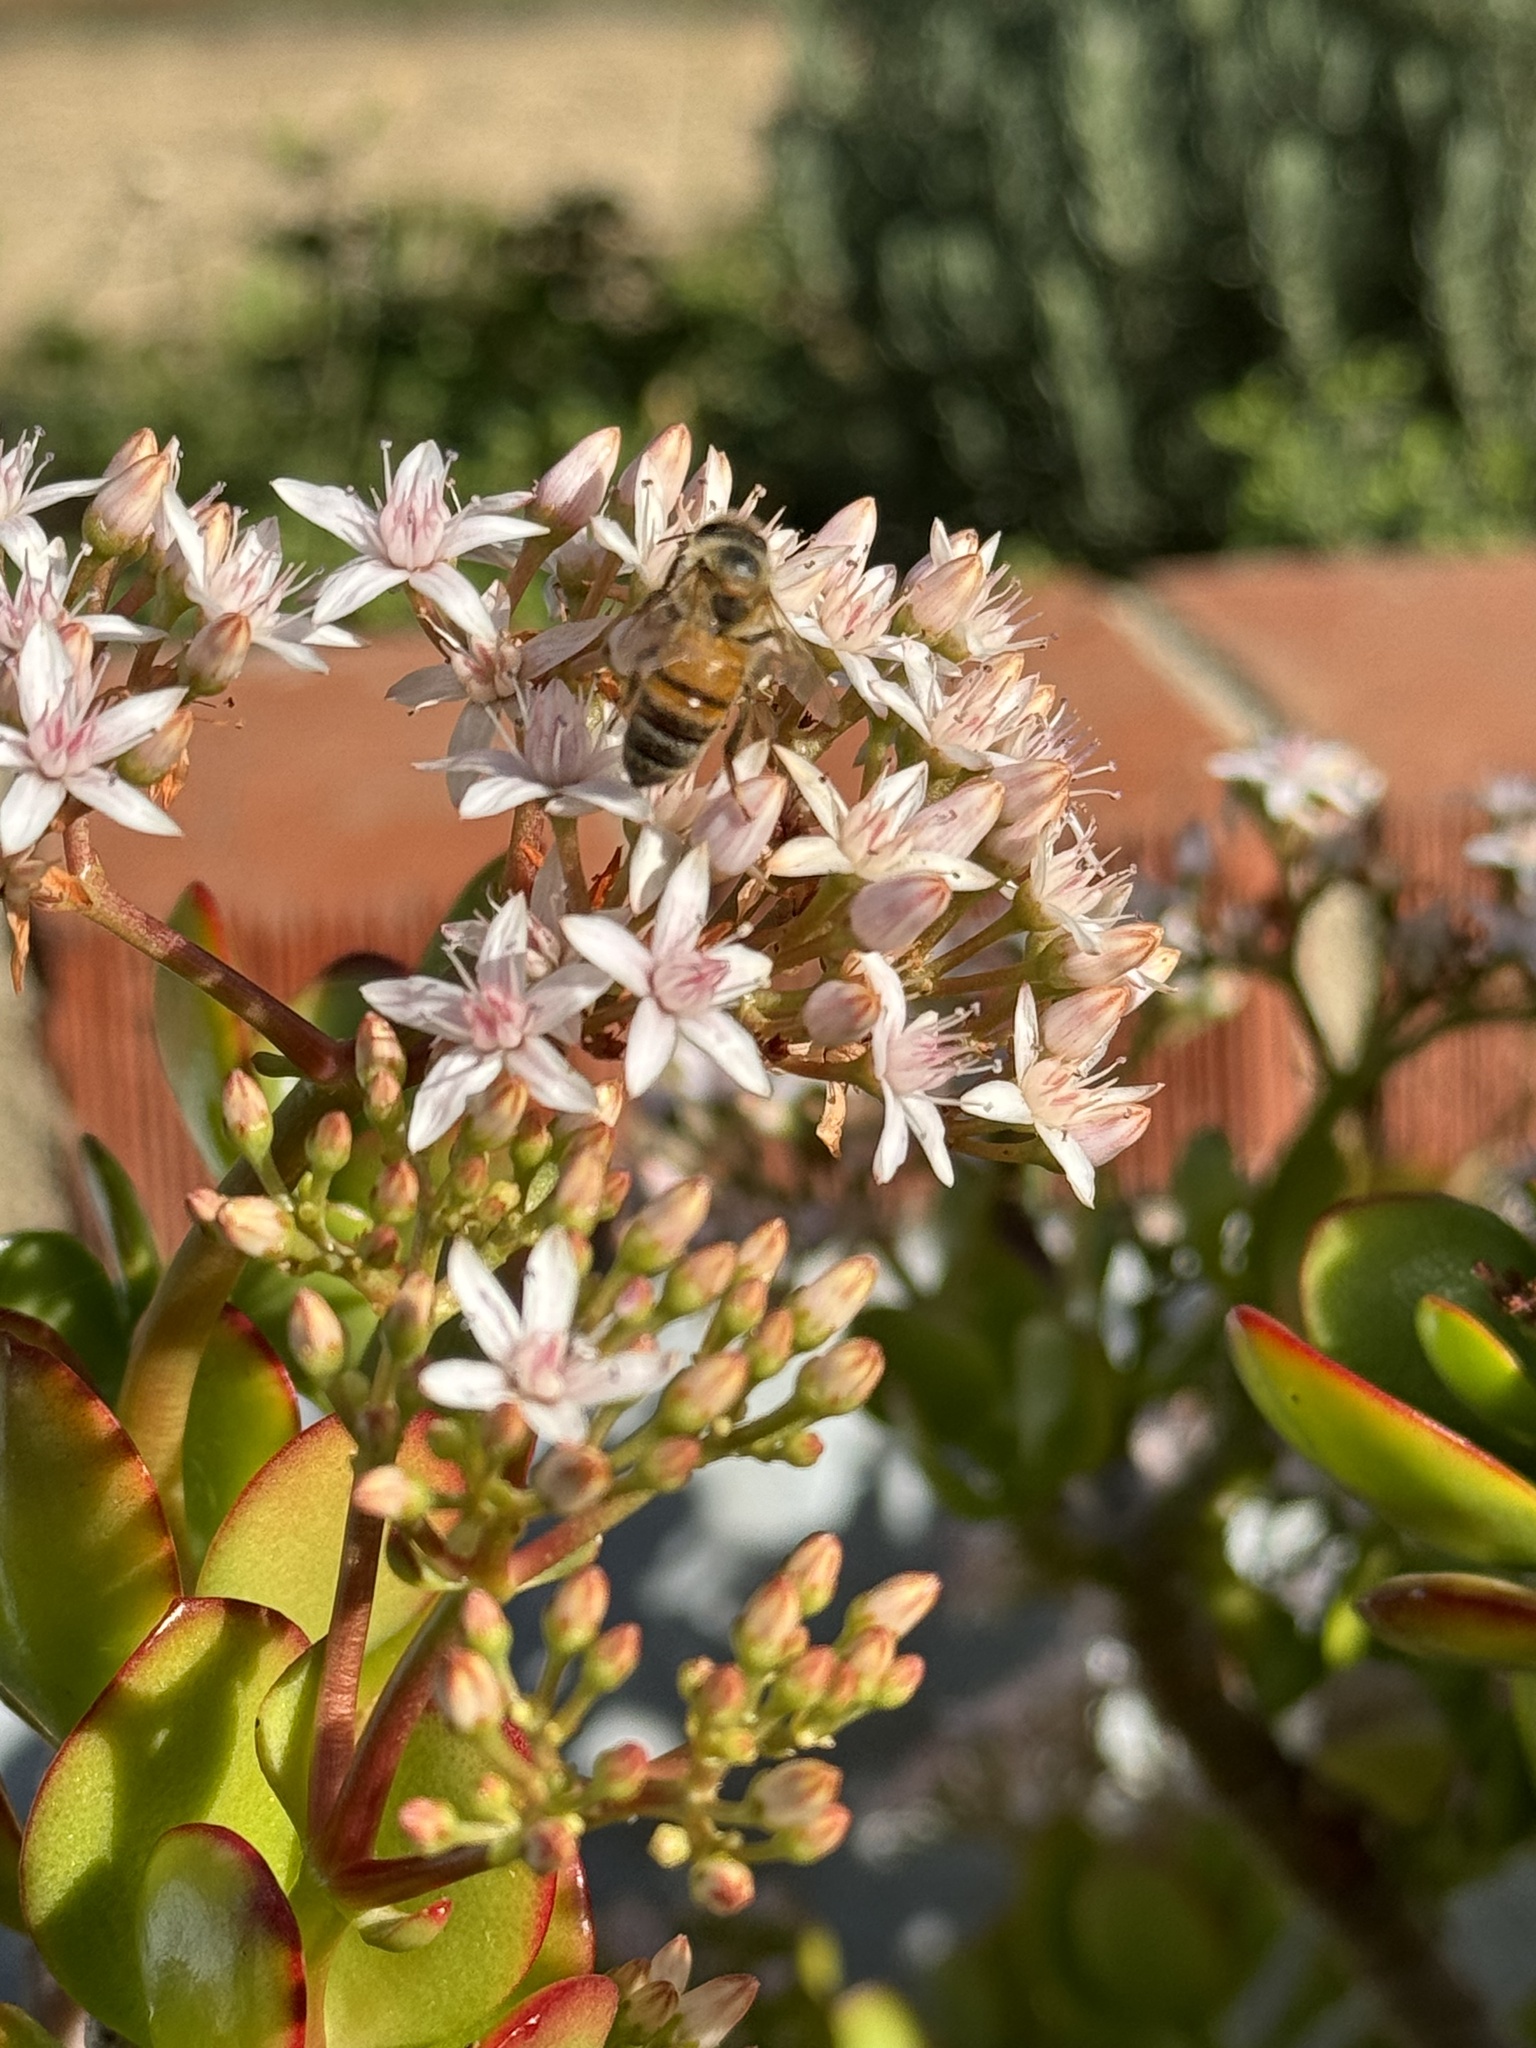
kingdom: Animalia
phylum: Arthropoda
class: Insecta
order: Hymenoptera
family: Apidae
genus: Apis
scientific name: Apis mellifera
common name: Honey bee
